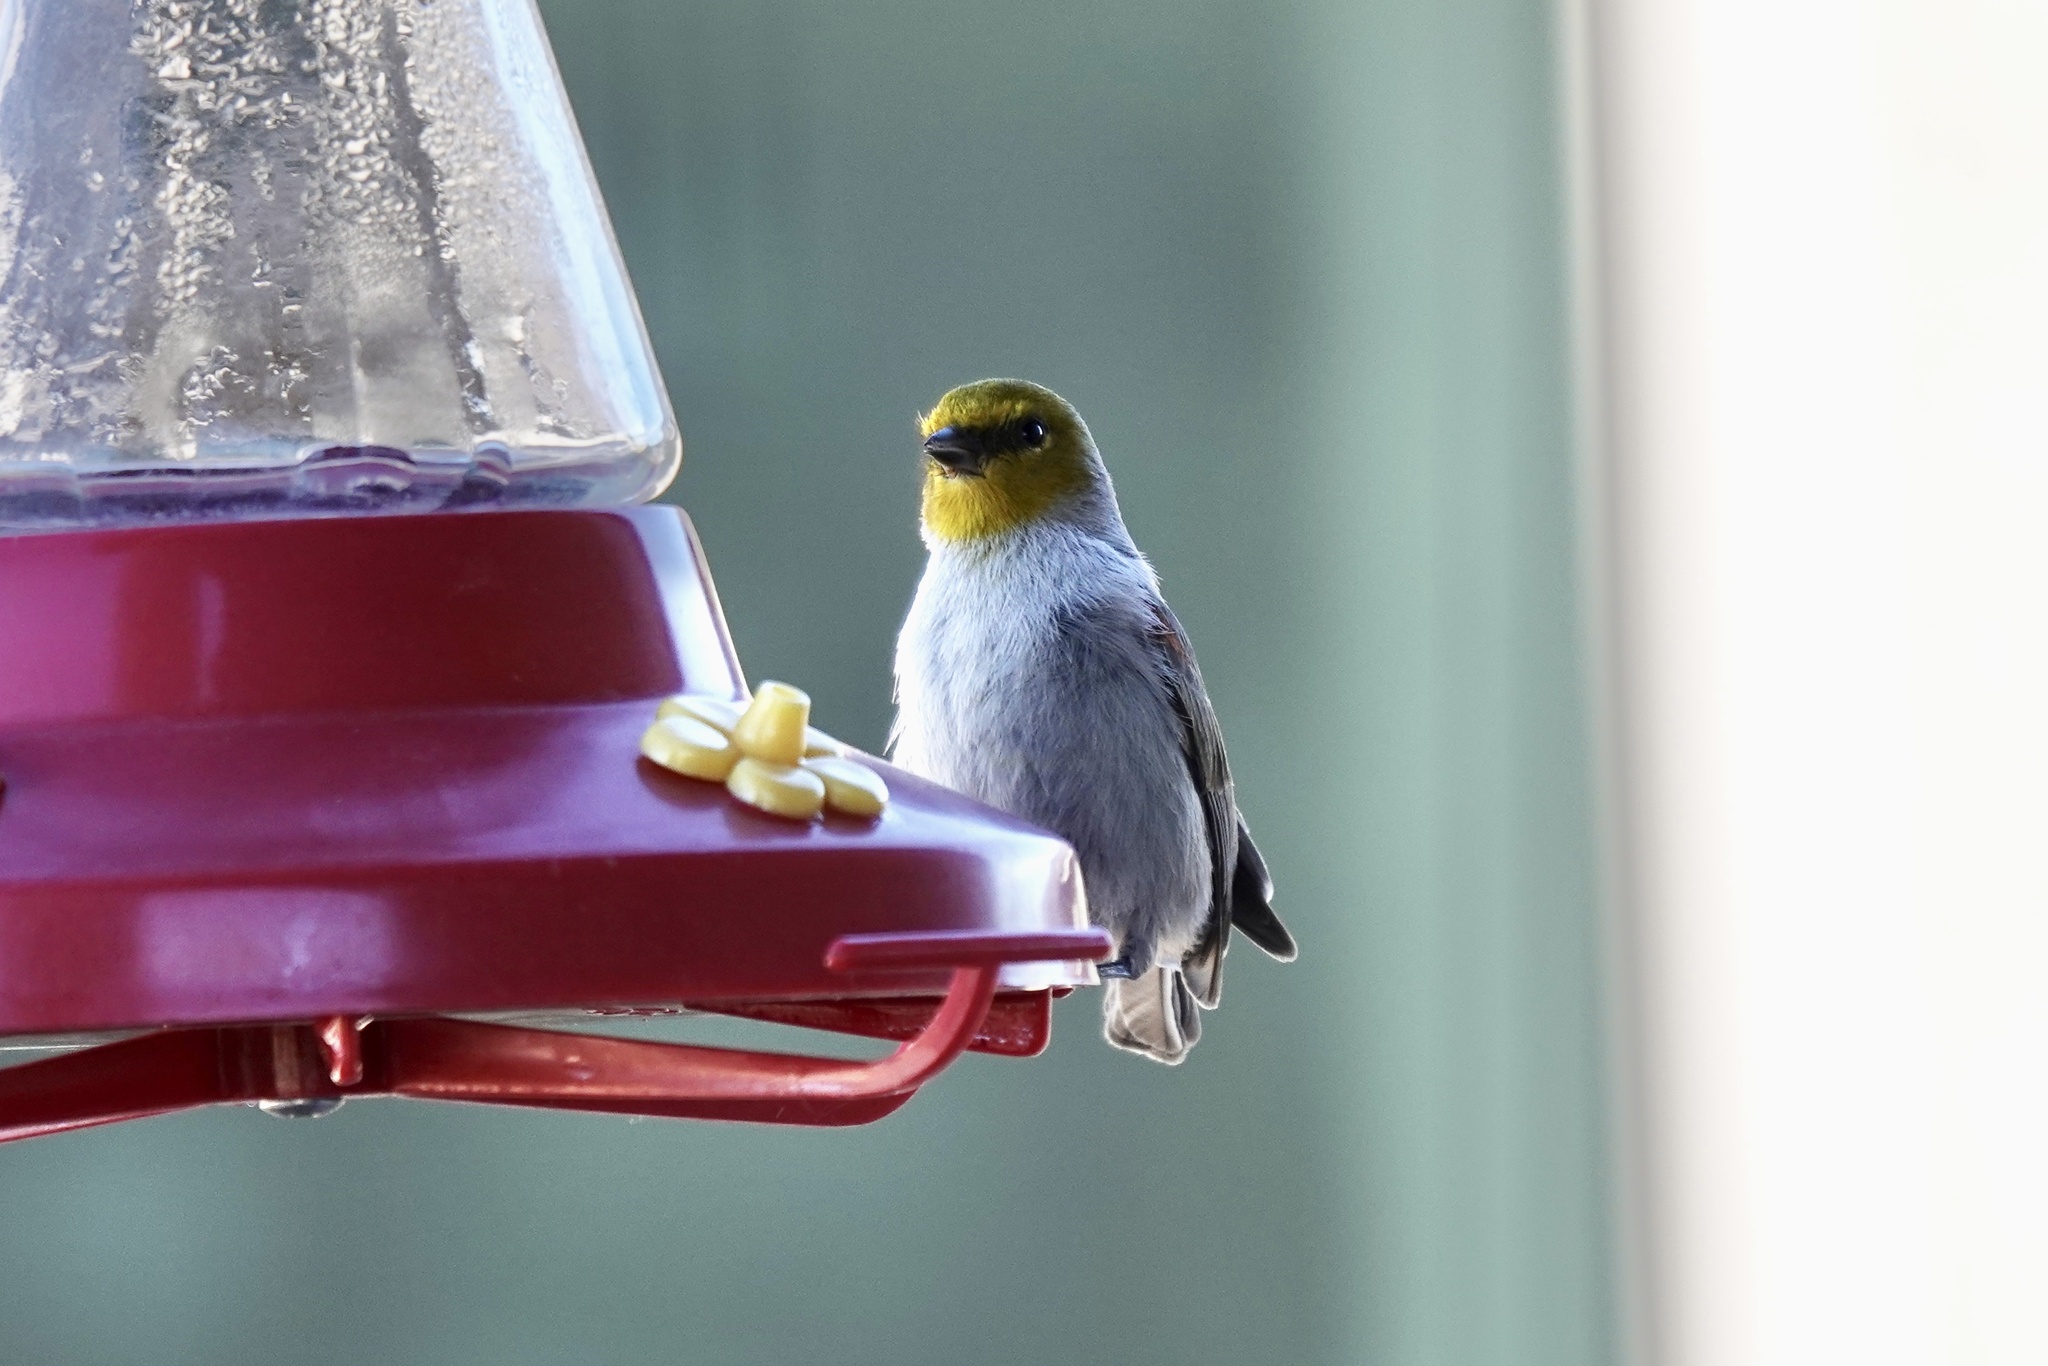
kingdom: Animalia
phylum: Chordata
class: Aves
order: Passeriformes
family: Remizidae
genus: Auriparus
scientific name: Auriparus flaviceps
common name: Verdin
